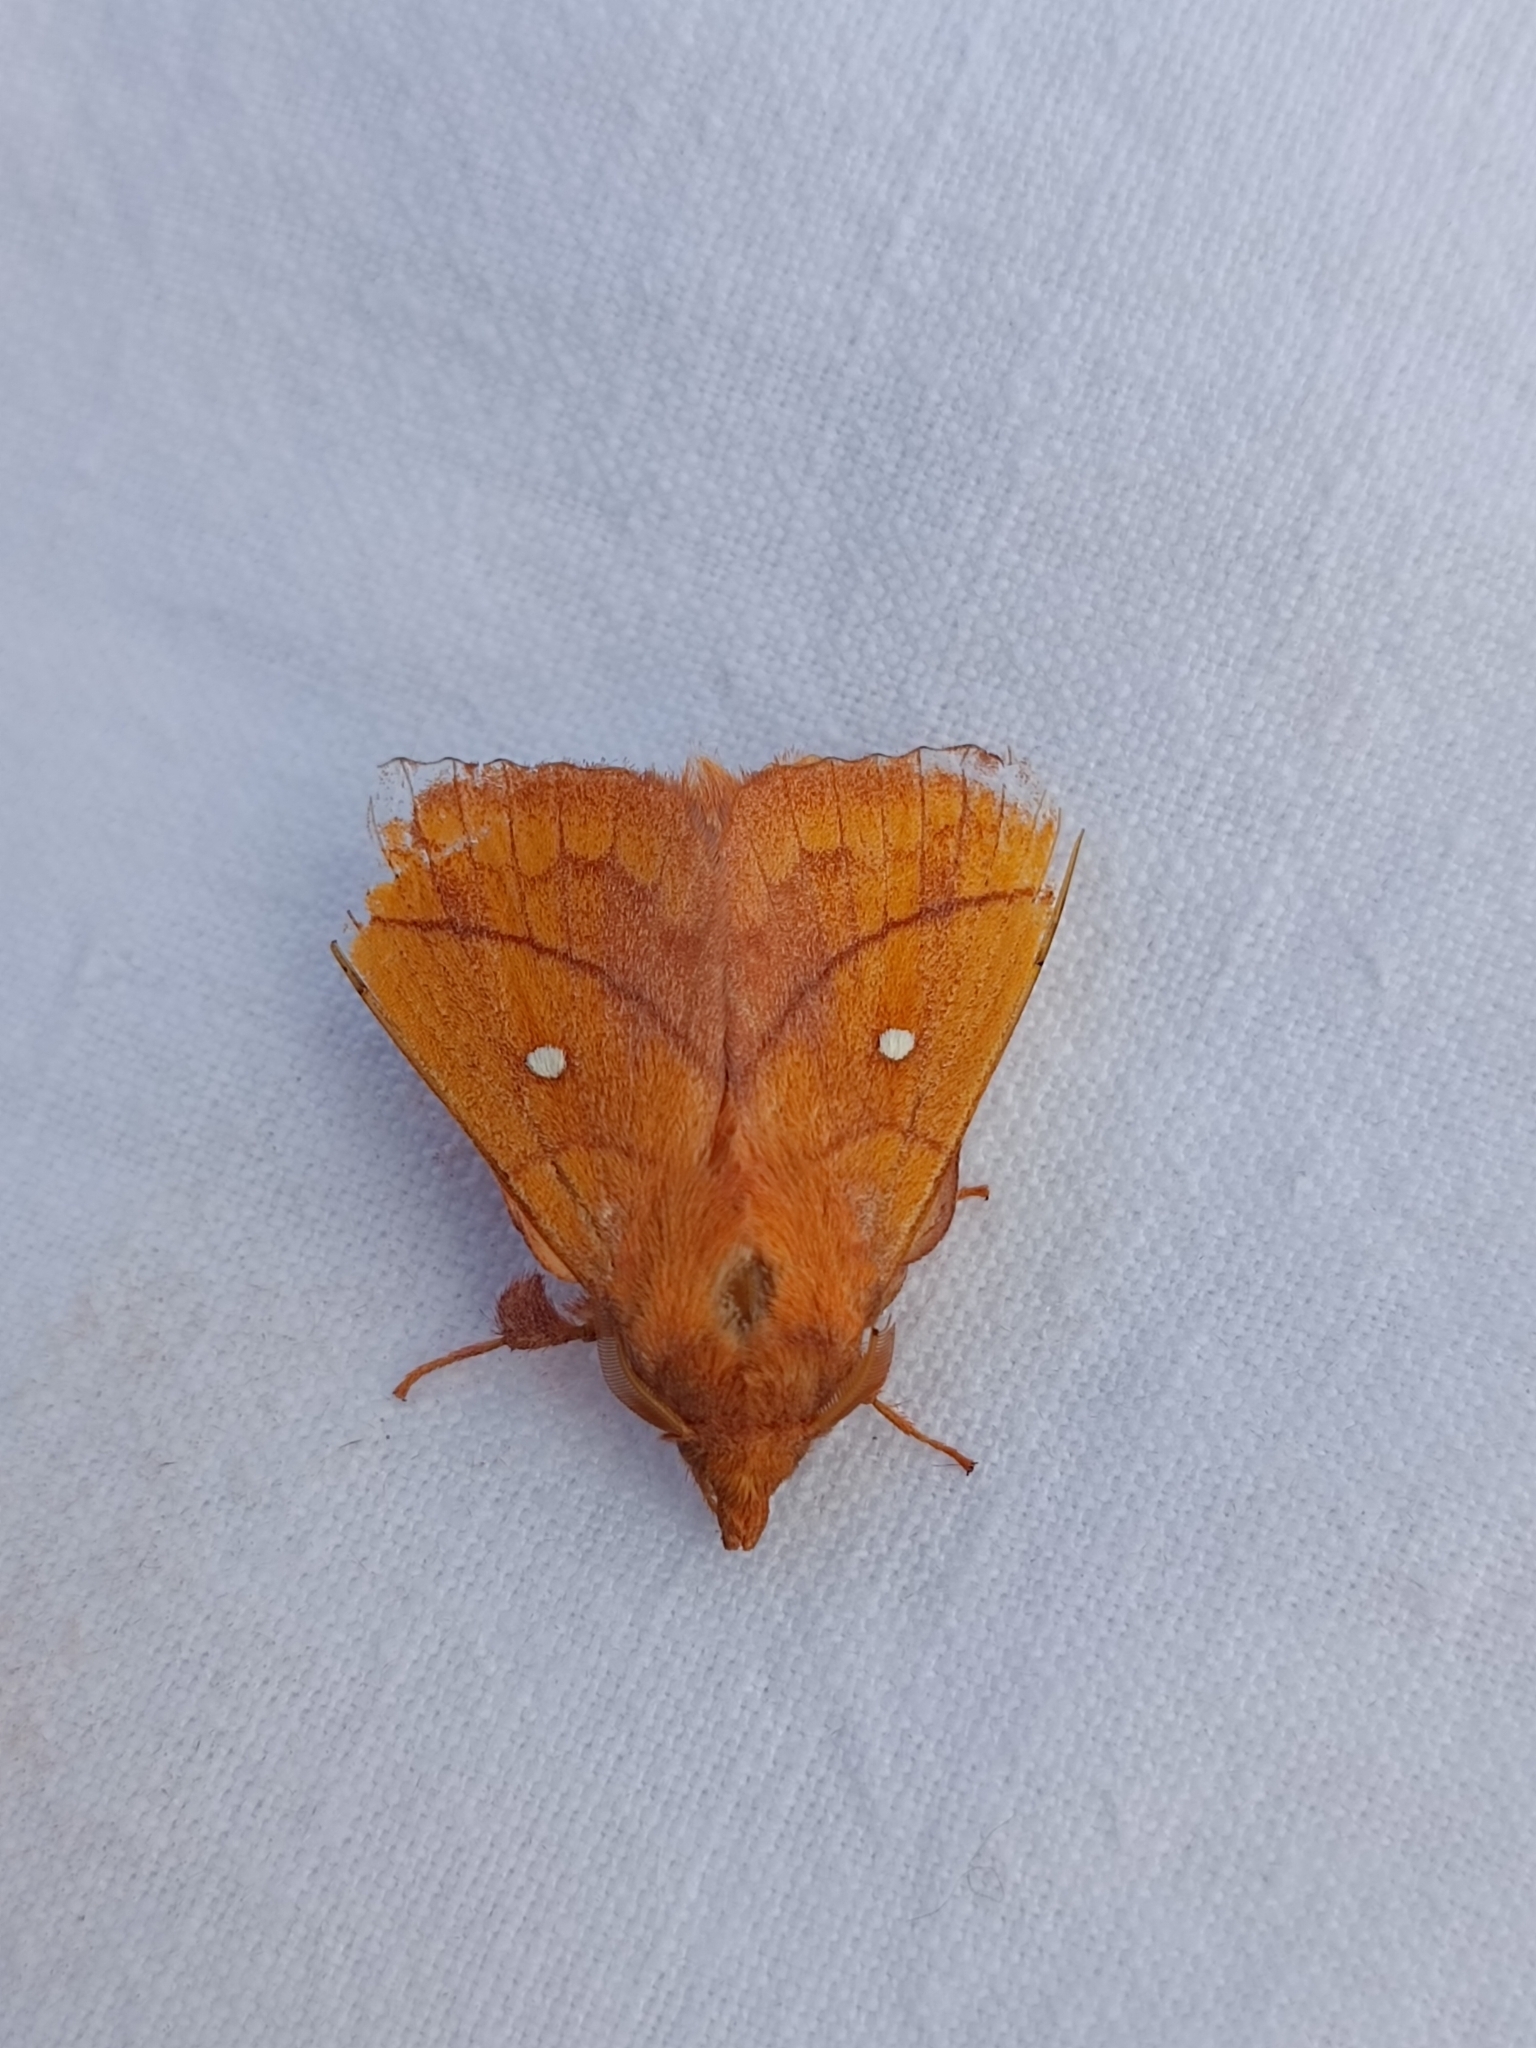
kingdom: Animalia
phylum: Arthropoda
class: Insecta
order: Lepidoptera
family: Lasiocampidae
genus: Odonestis
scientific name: Odonestis pruni
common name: Plum lappet
